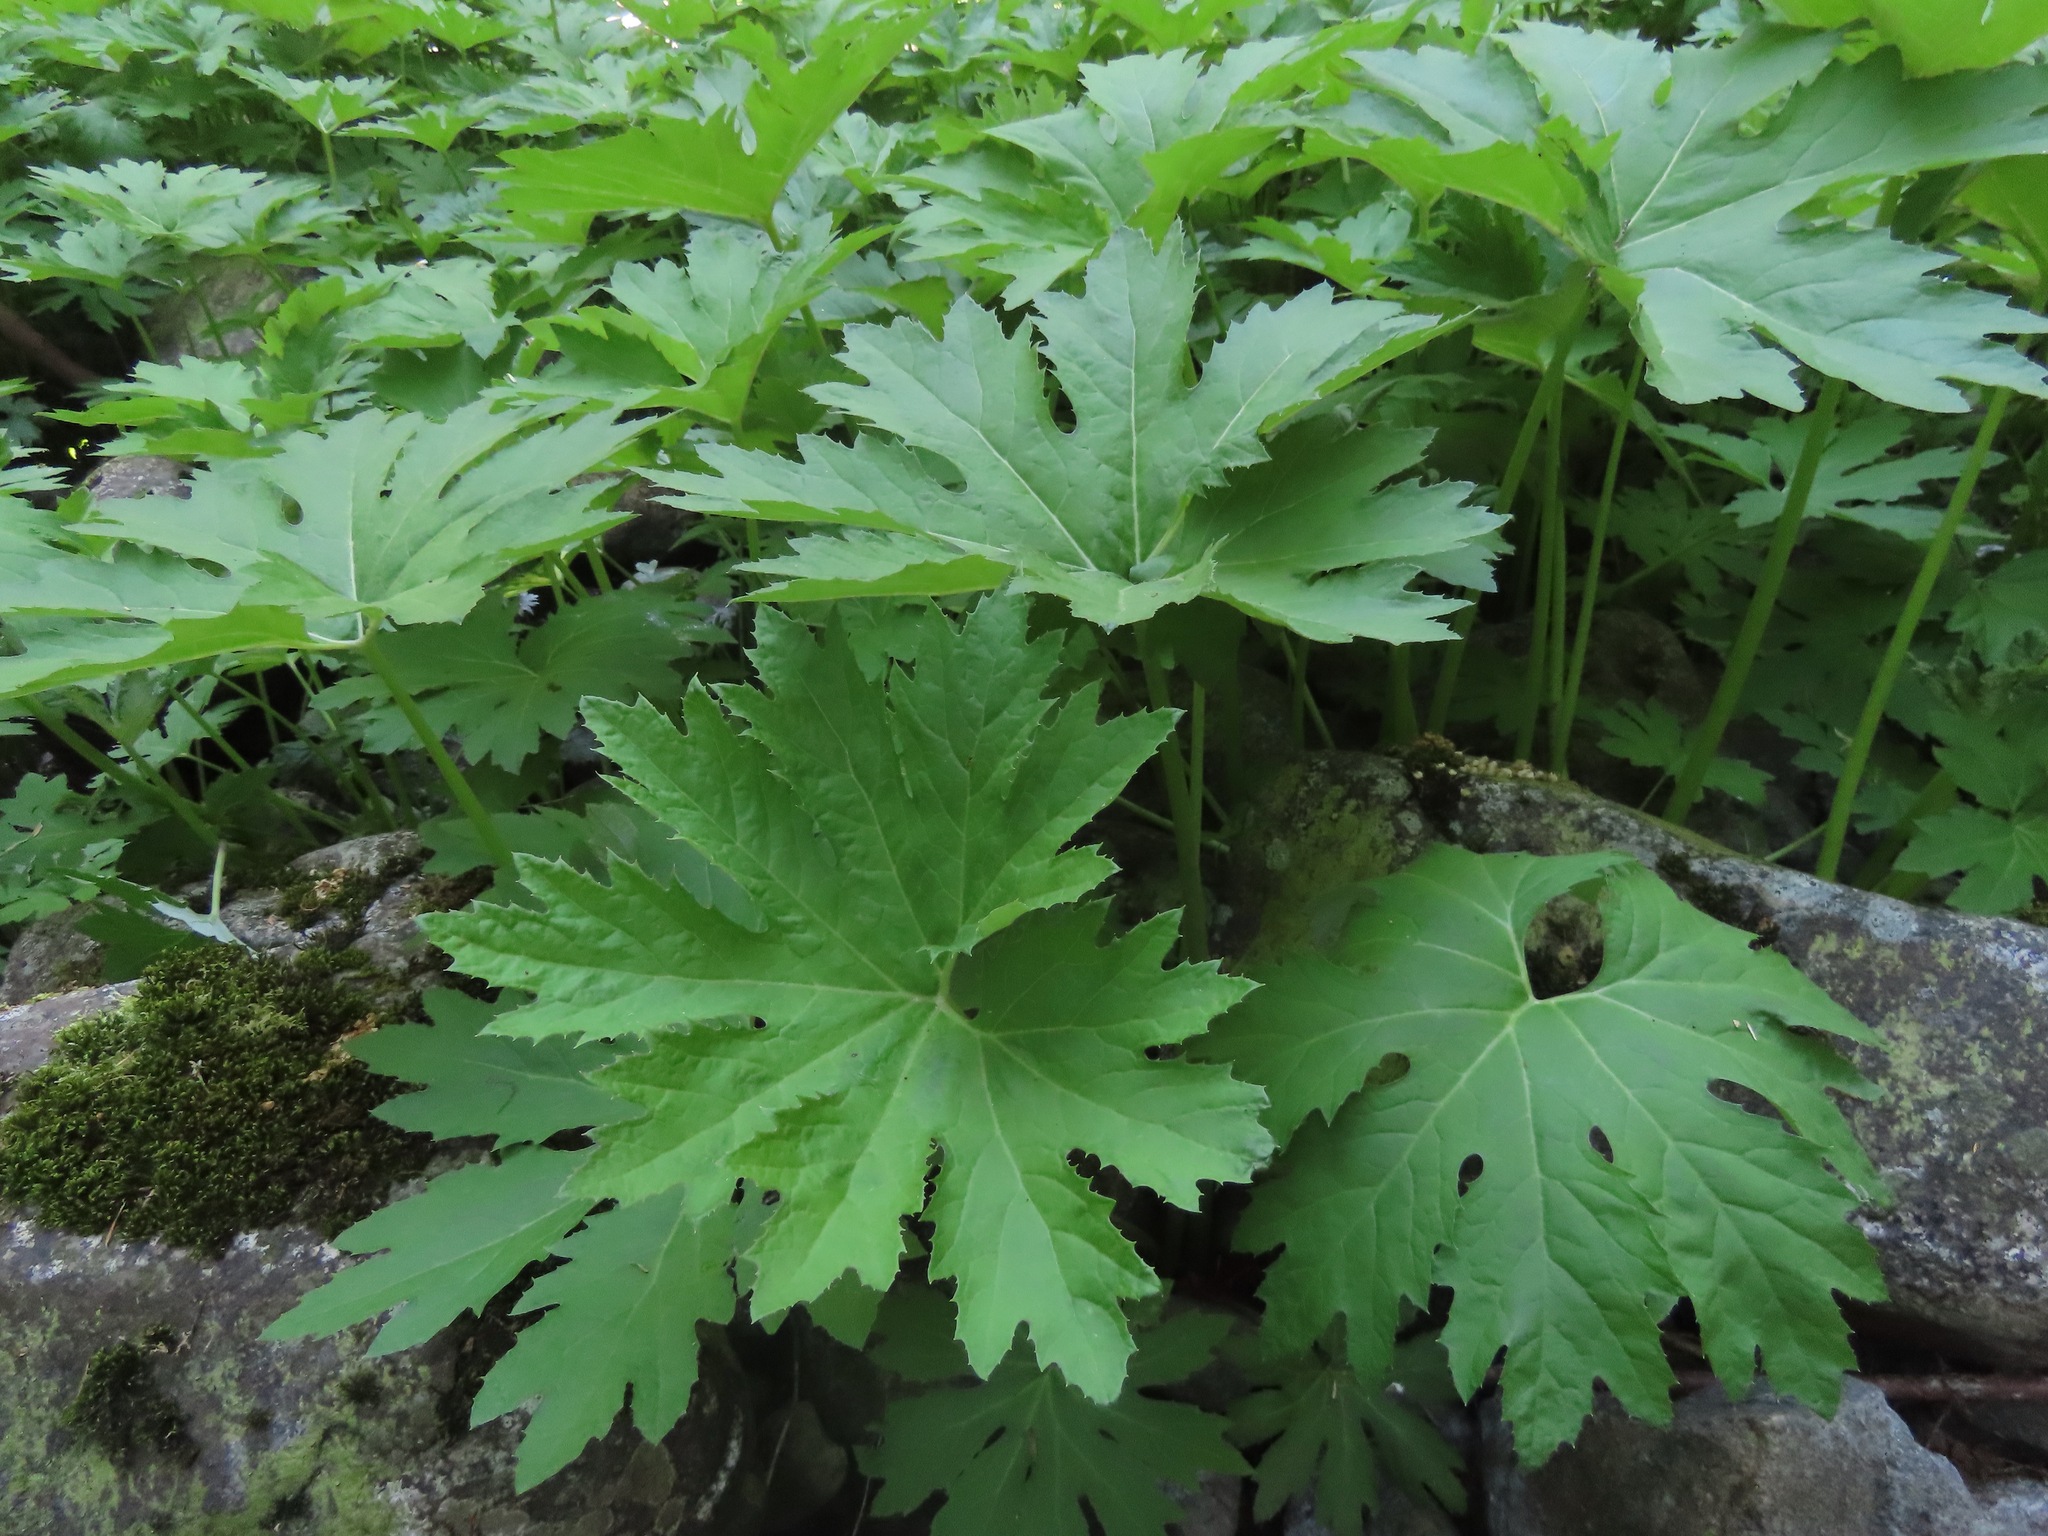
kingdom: Plantae
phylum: Tracheophyta
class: Magnoliopsida
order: Asterales
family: Asteraceae
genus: Petasites
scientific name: Petasites frigidus
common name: Arctic butterbur
